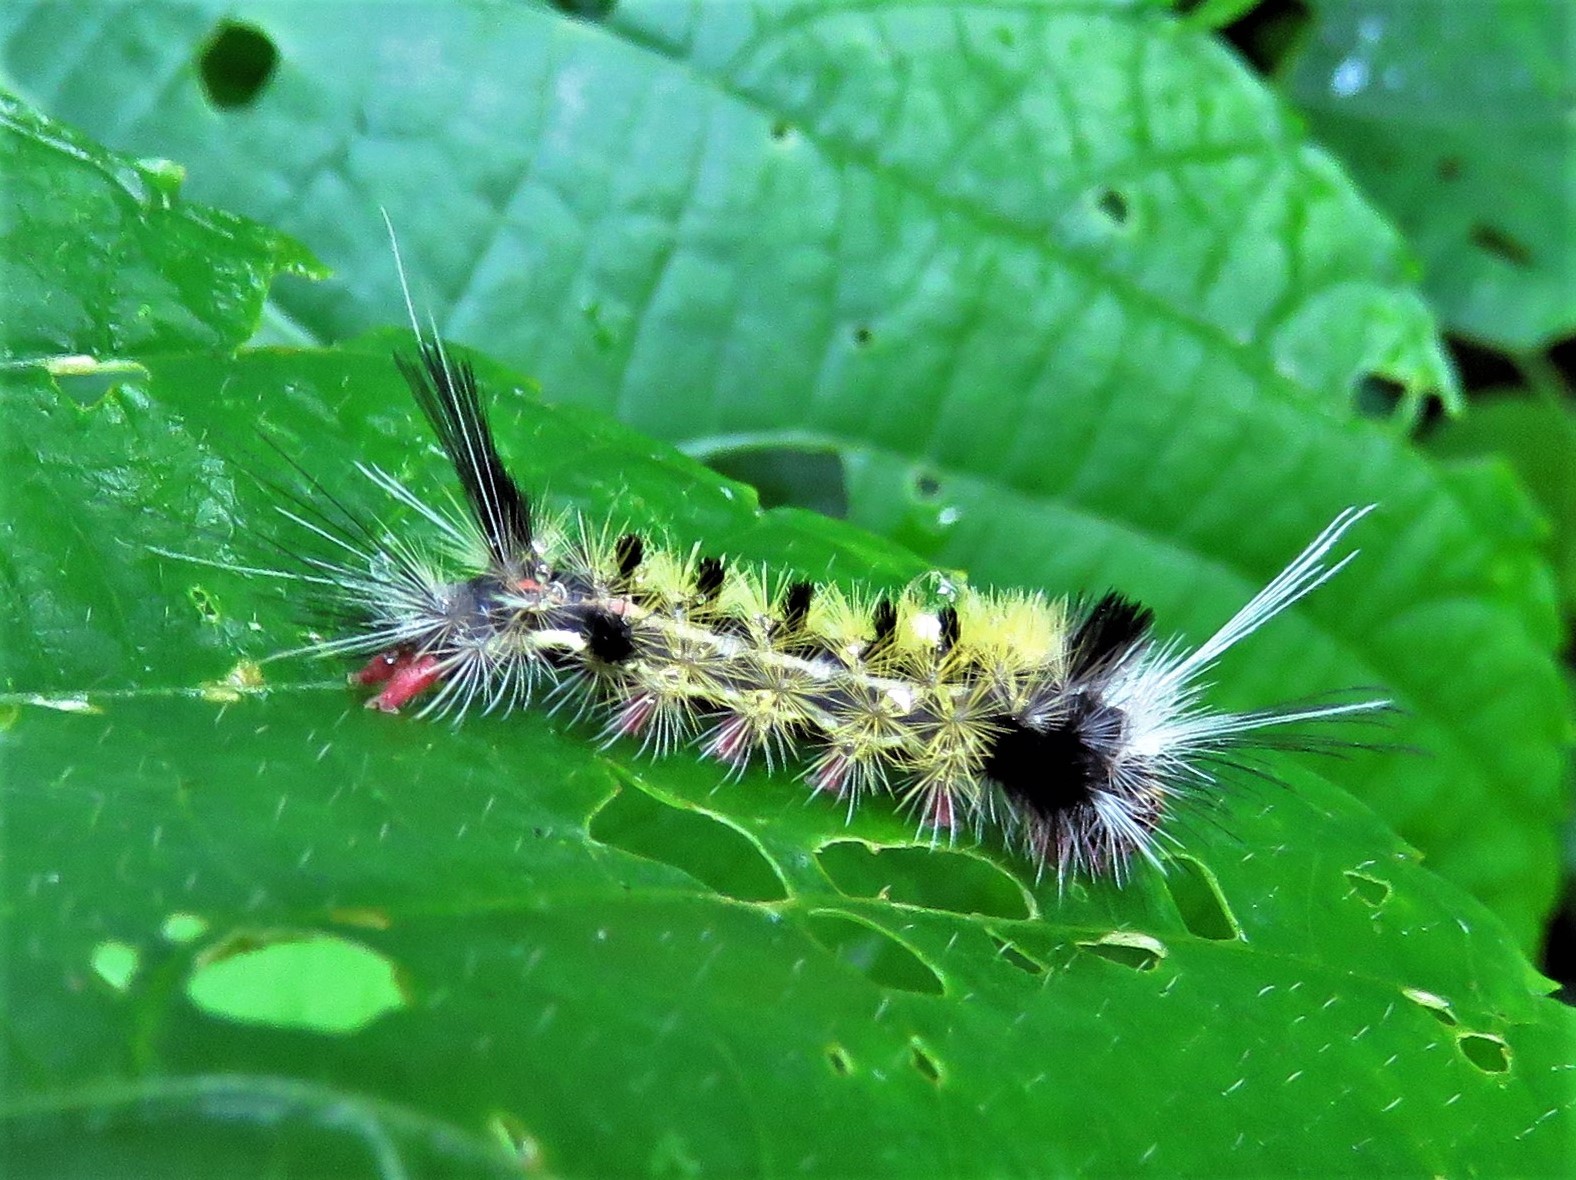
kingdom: Animalia
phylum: Arthropoda
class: Insecta
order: Lepidoptera
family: Erebidae
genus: Carales
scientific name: Carales astur
